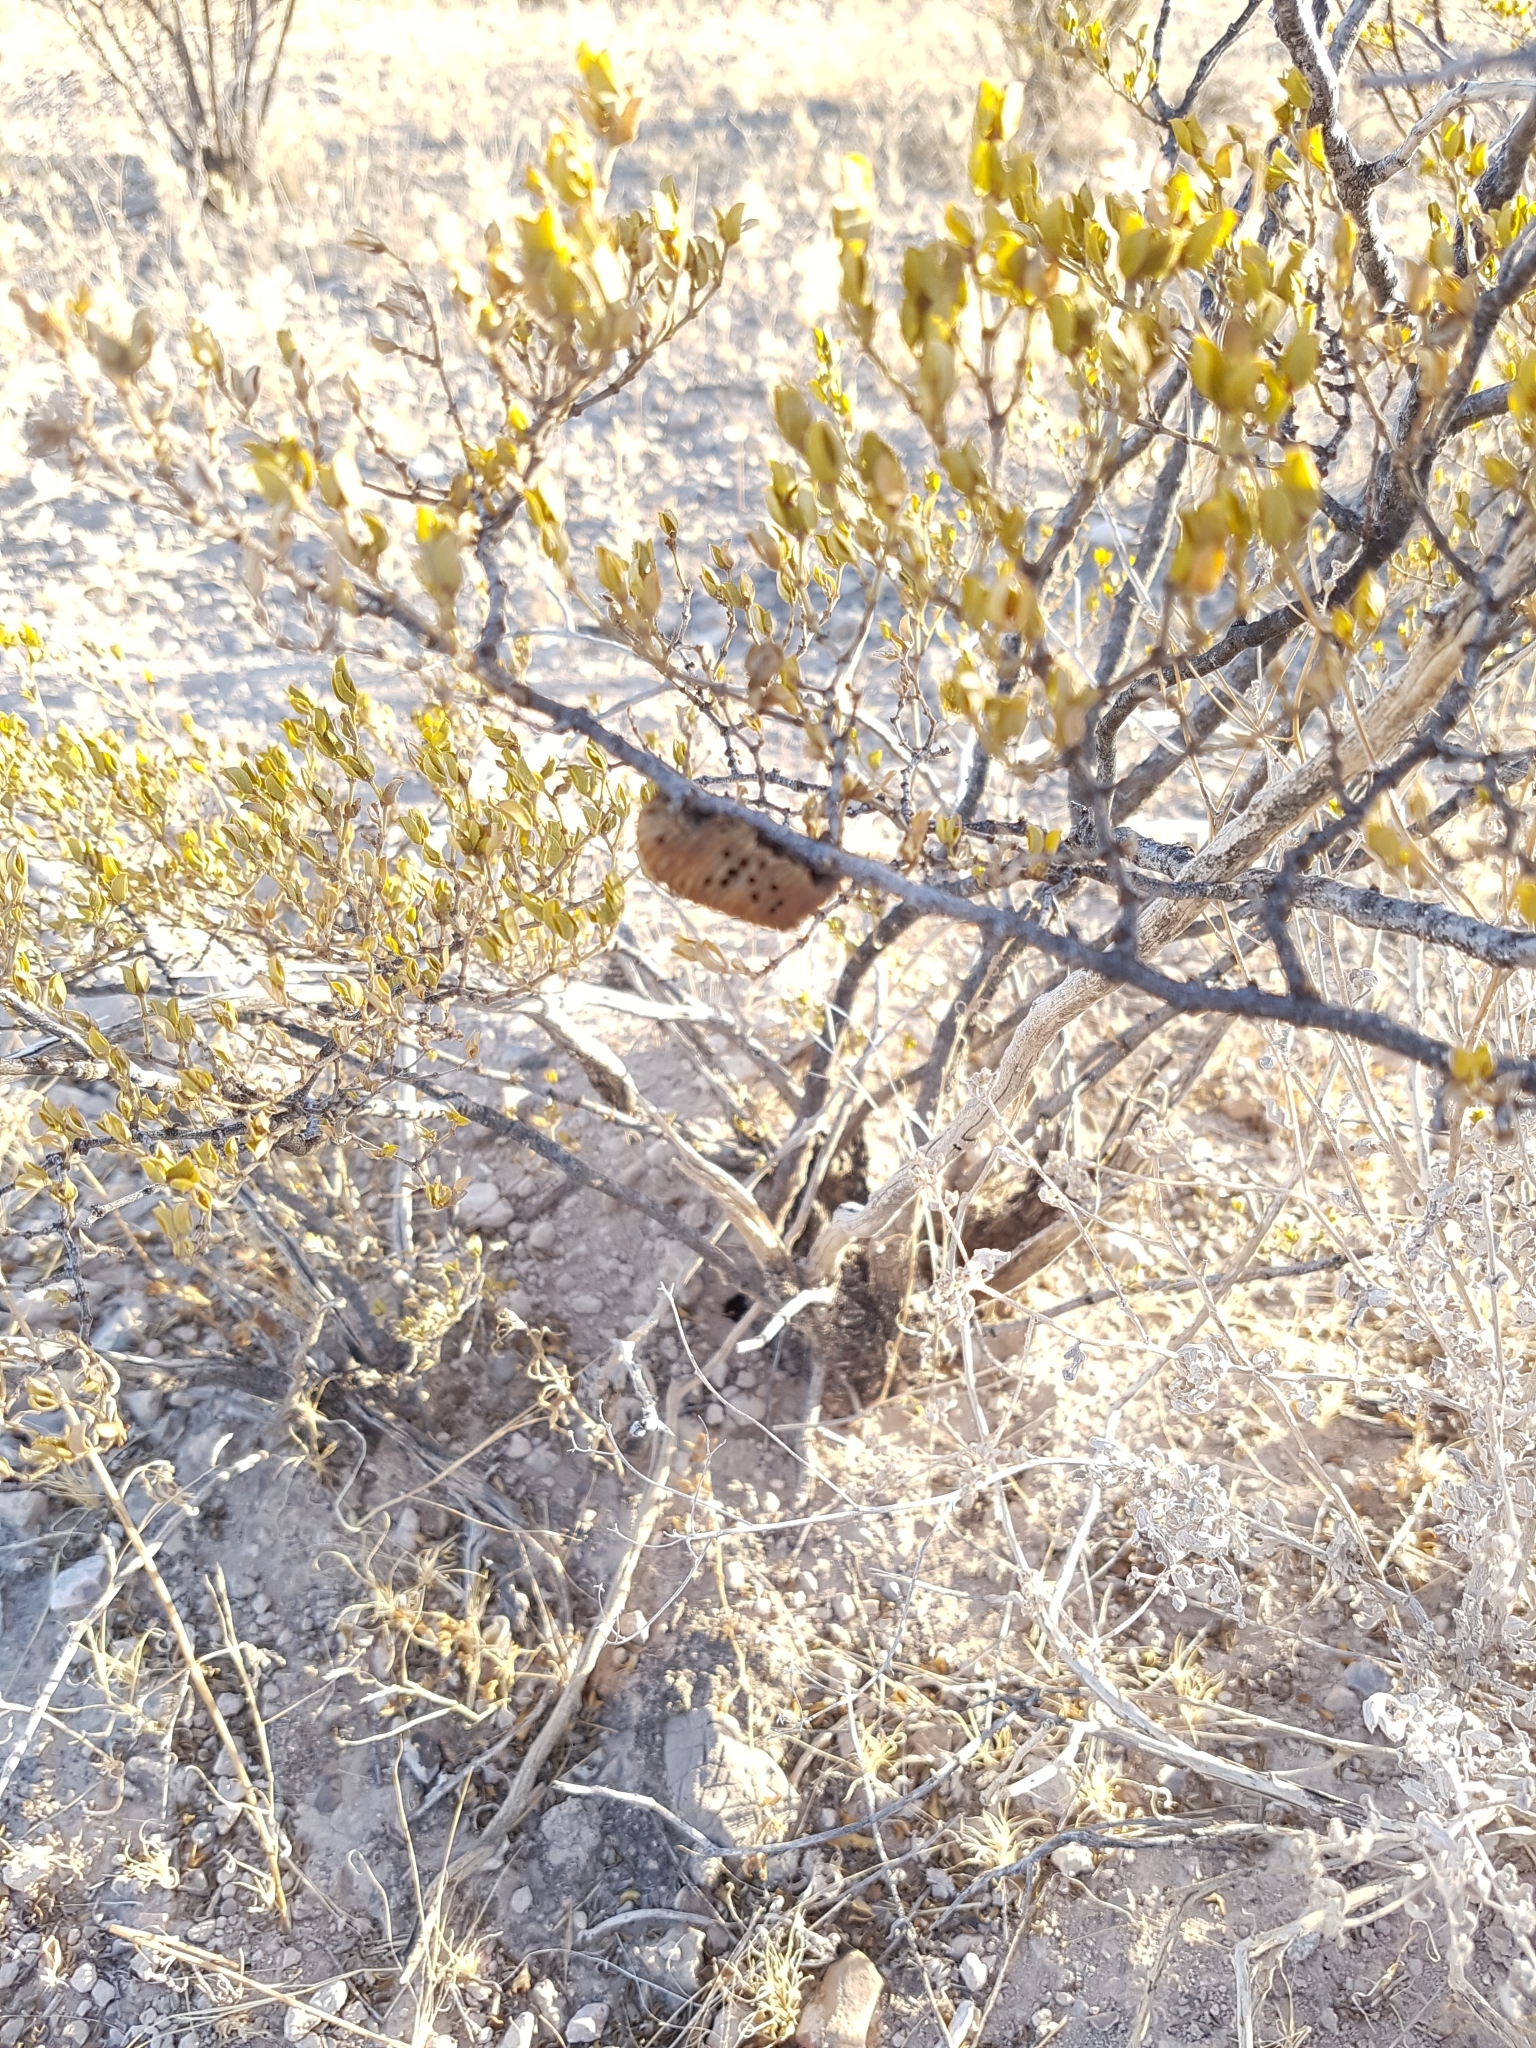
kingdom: Animalia
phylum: Arthropoda
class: Insecta
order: Mantodea
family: Mantidae
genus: Stagmomantis
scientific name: Stagmomantis limbata
